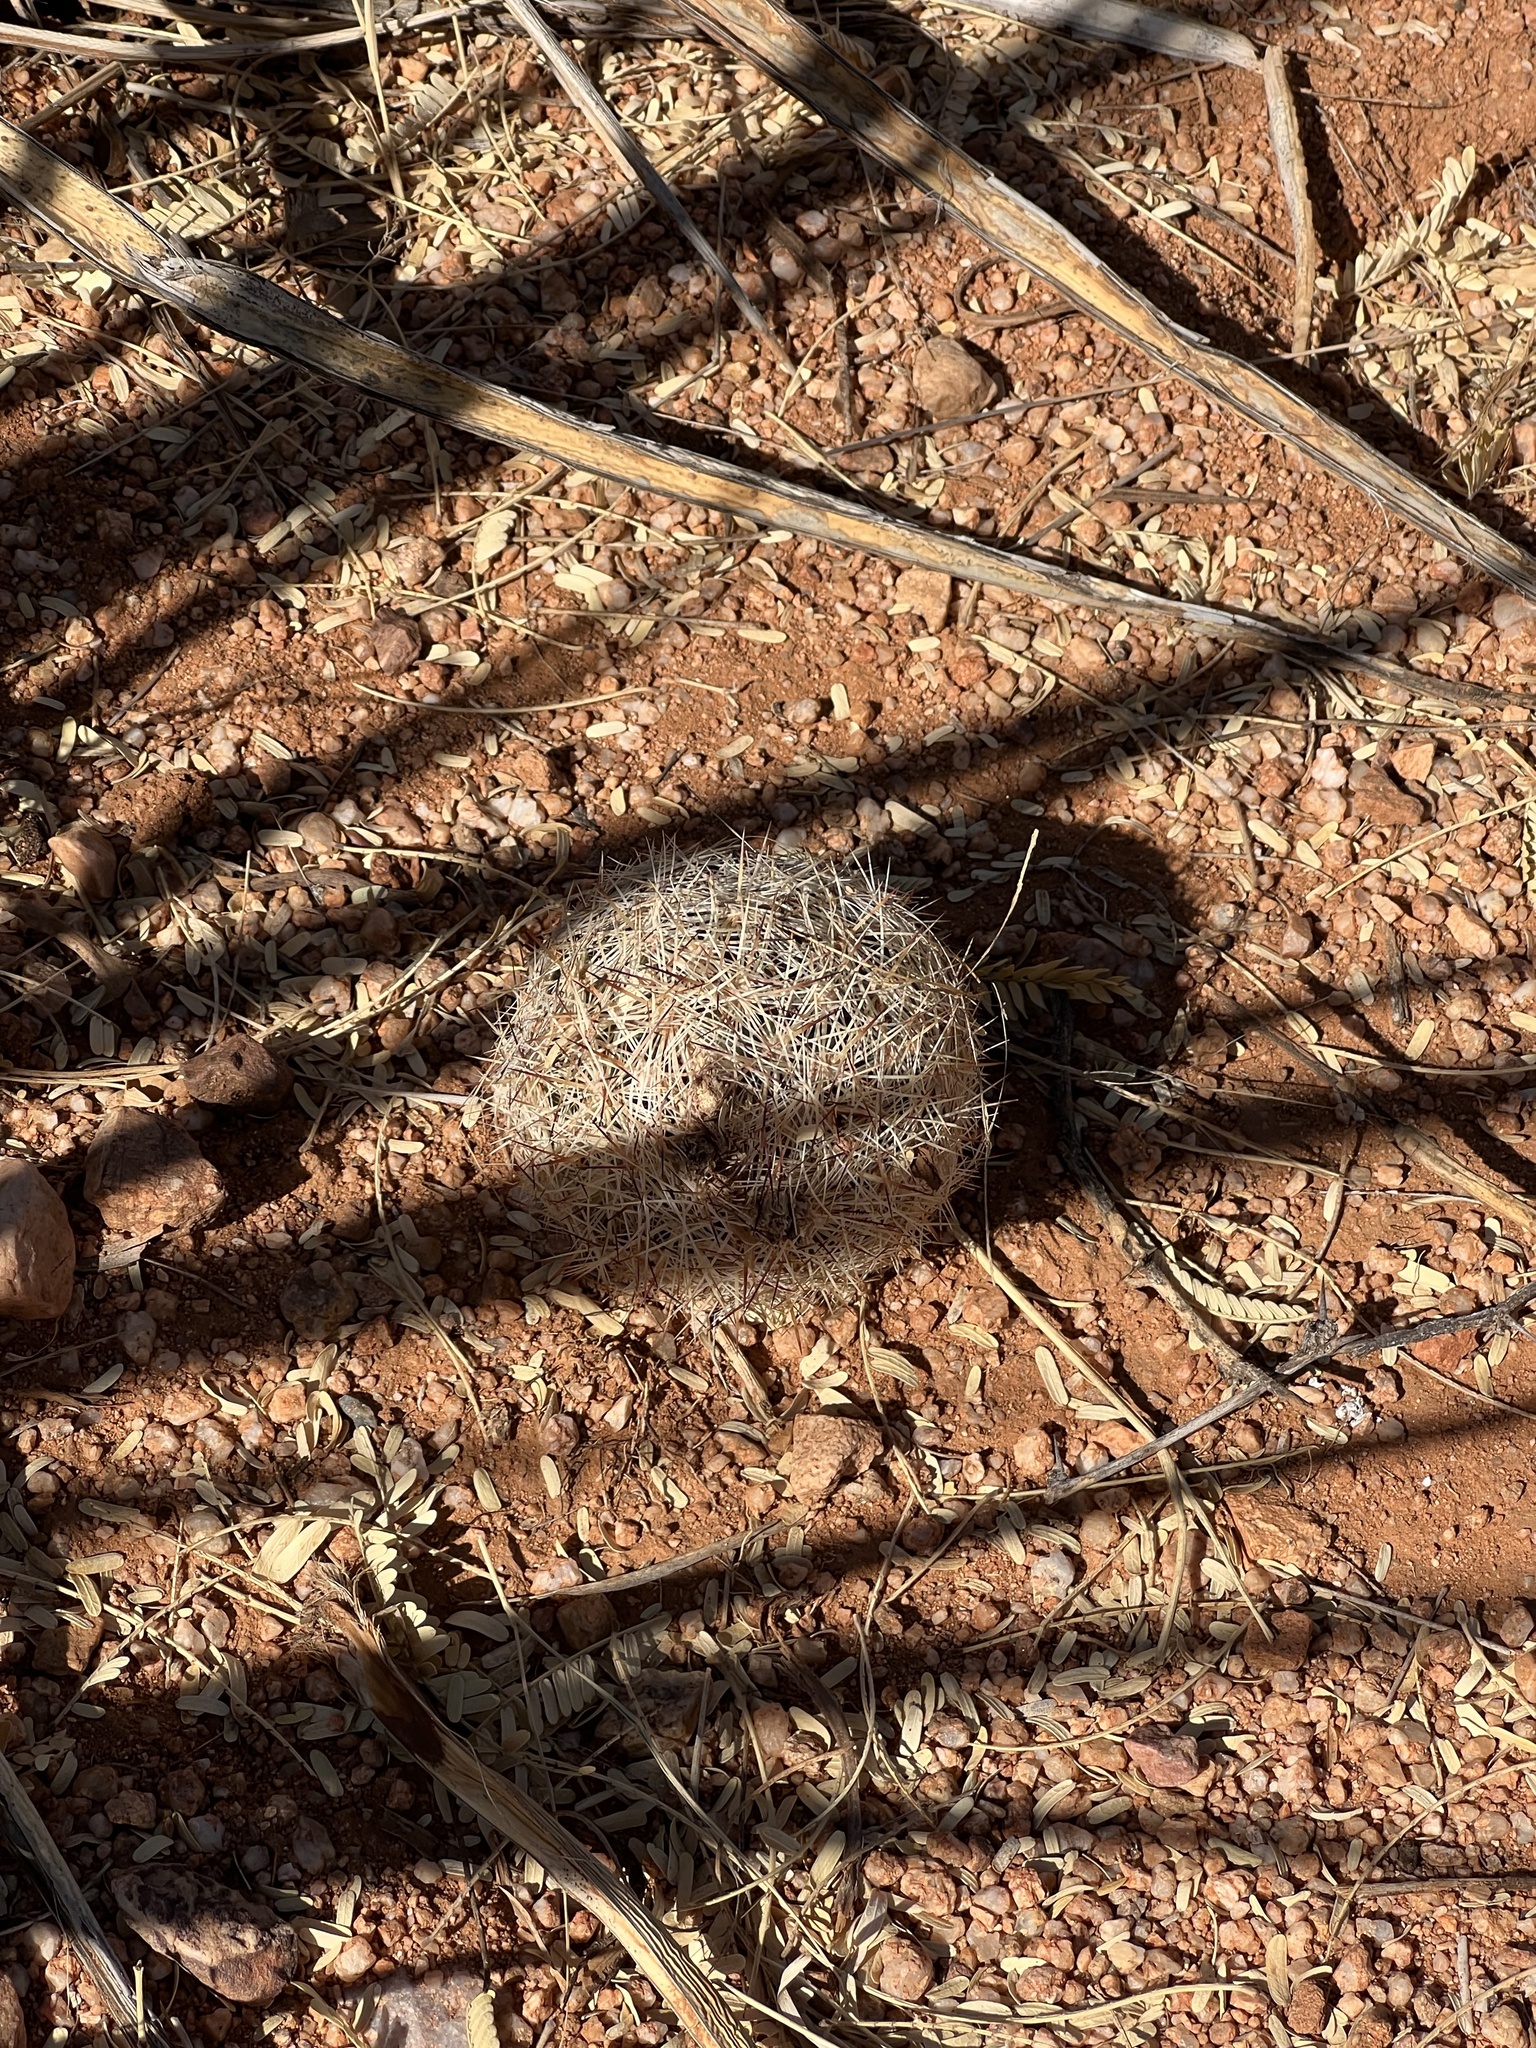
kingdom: Plantae
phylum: Tracheophyta
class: Magnoliopsida
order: Caryophyllales
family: Cactaceae
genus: Sclerocactus
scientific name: Sclerocactus johnsonii
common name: Eight-spine fishhook cactus
